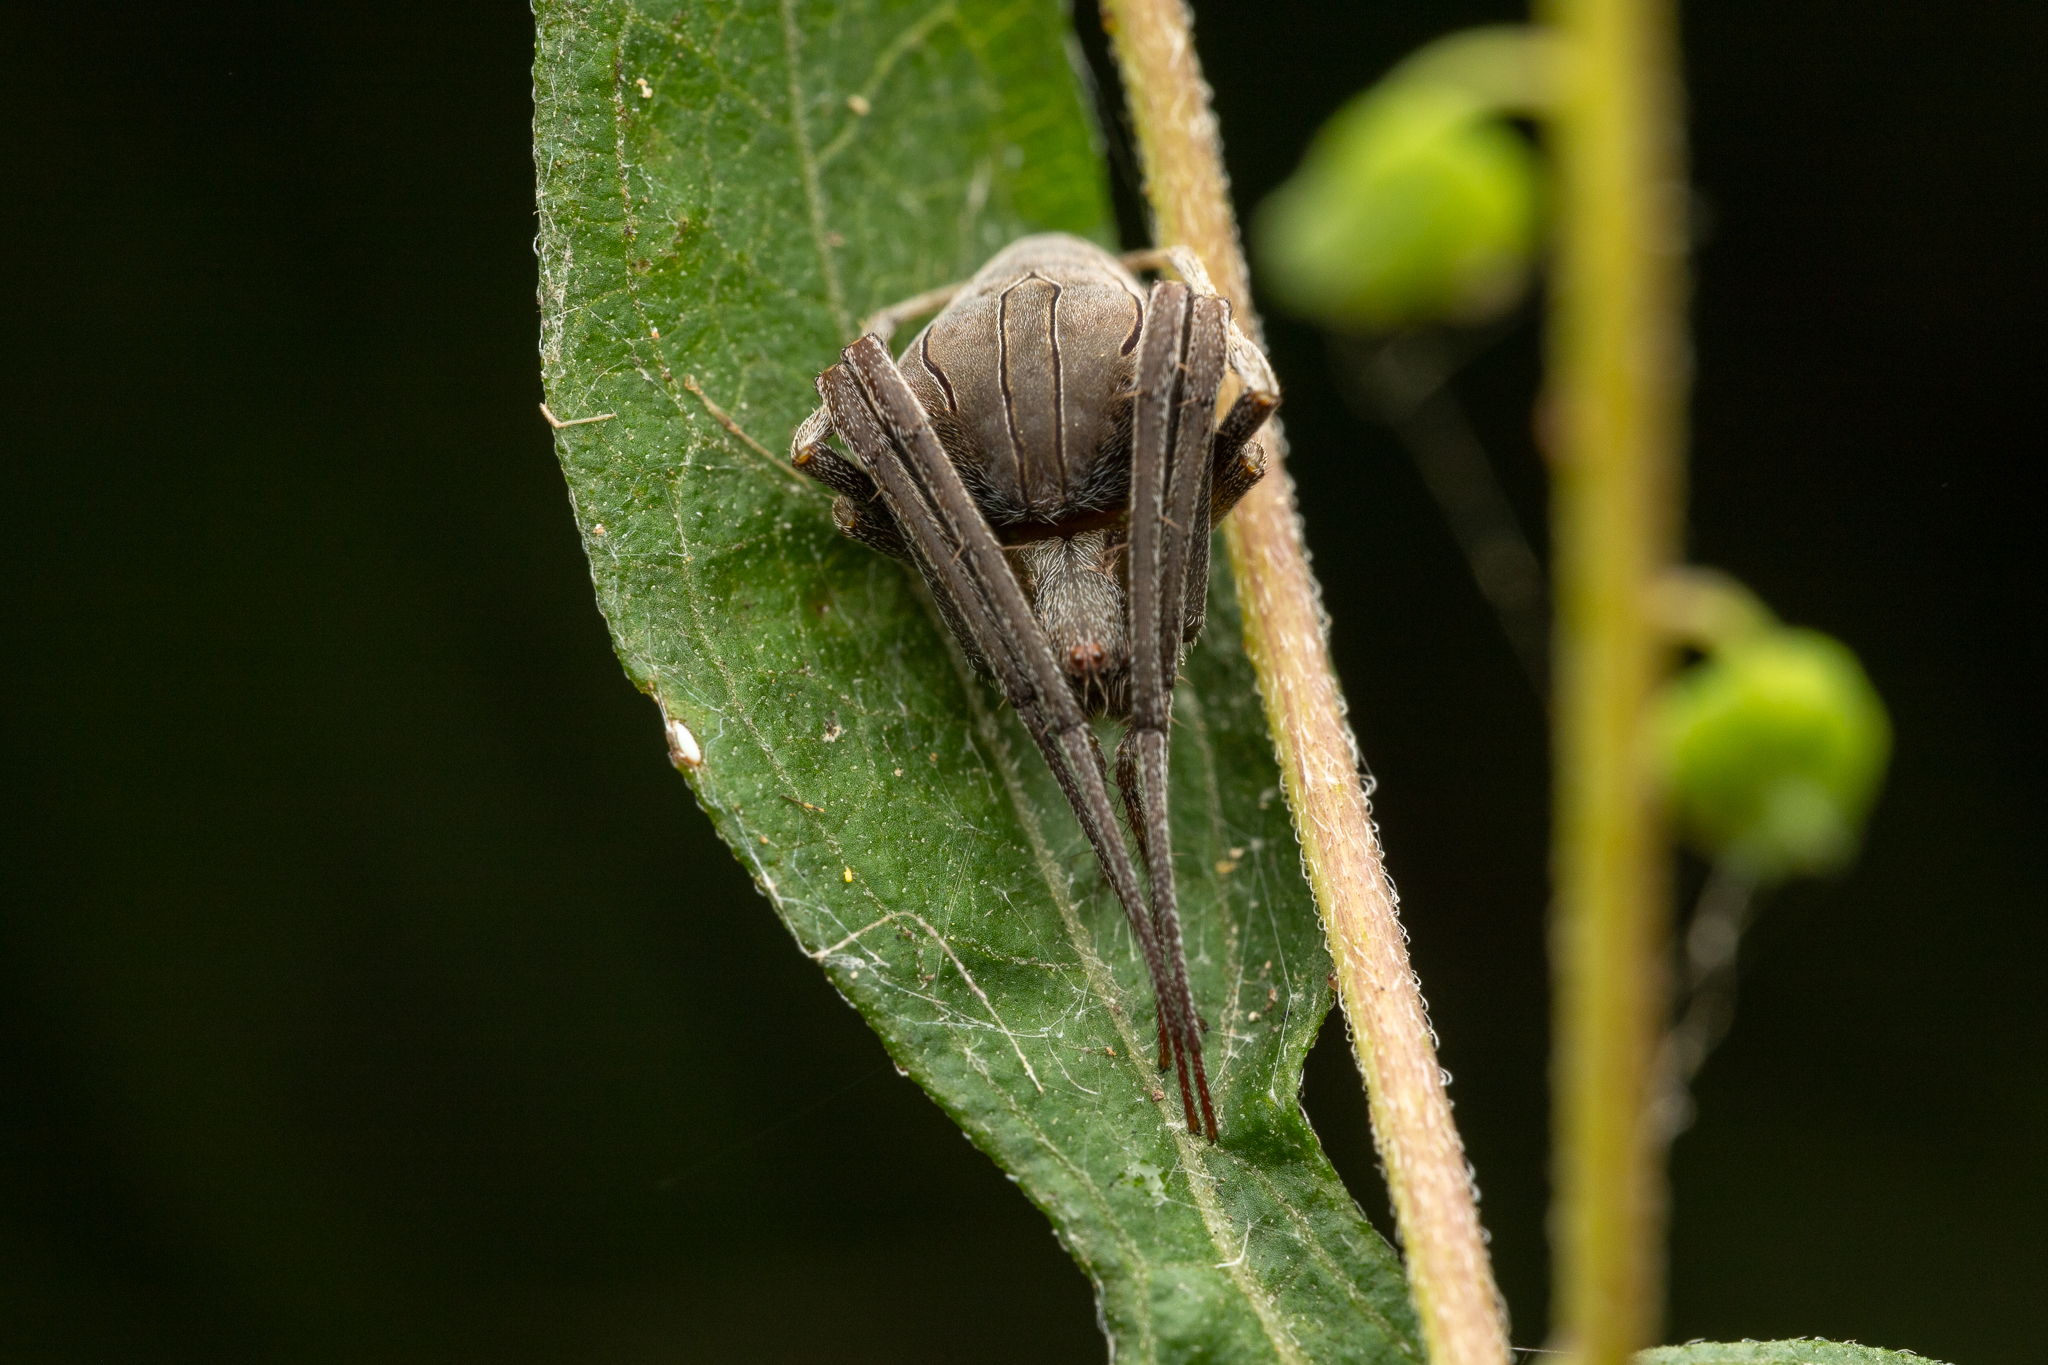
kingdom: Animalia
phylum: Arthropoda
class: Arachnida
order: Araneae
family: Araneidae
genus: Acacesia
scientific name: Acacesia hamata
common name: Orb weavers
